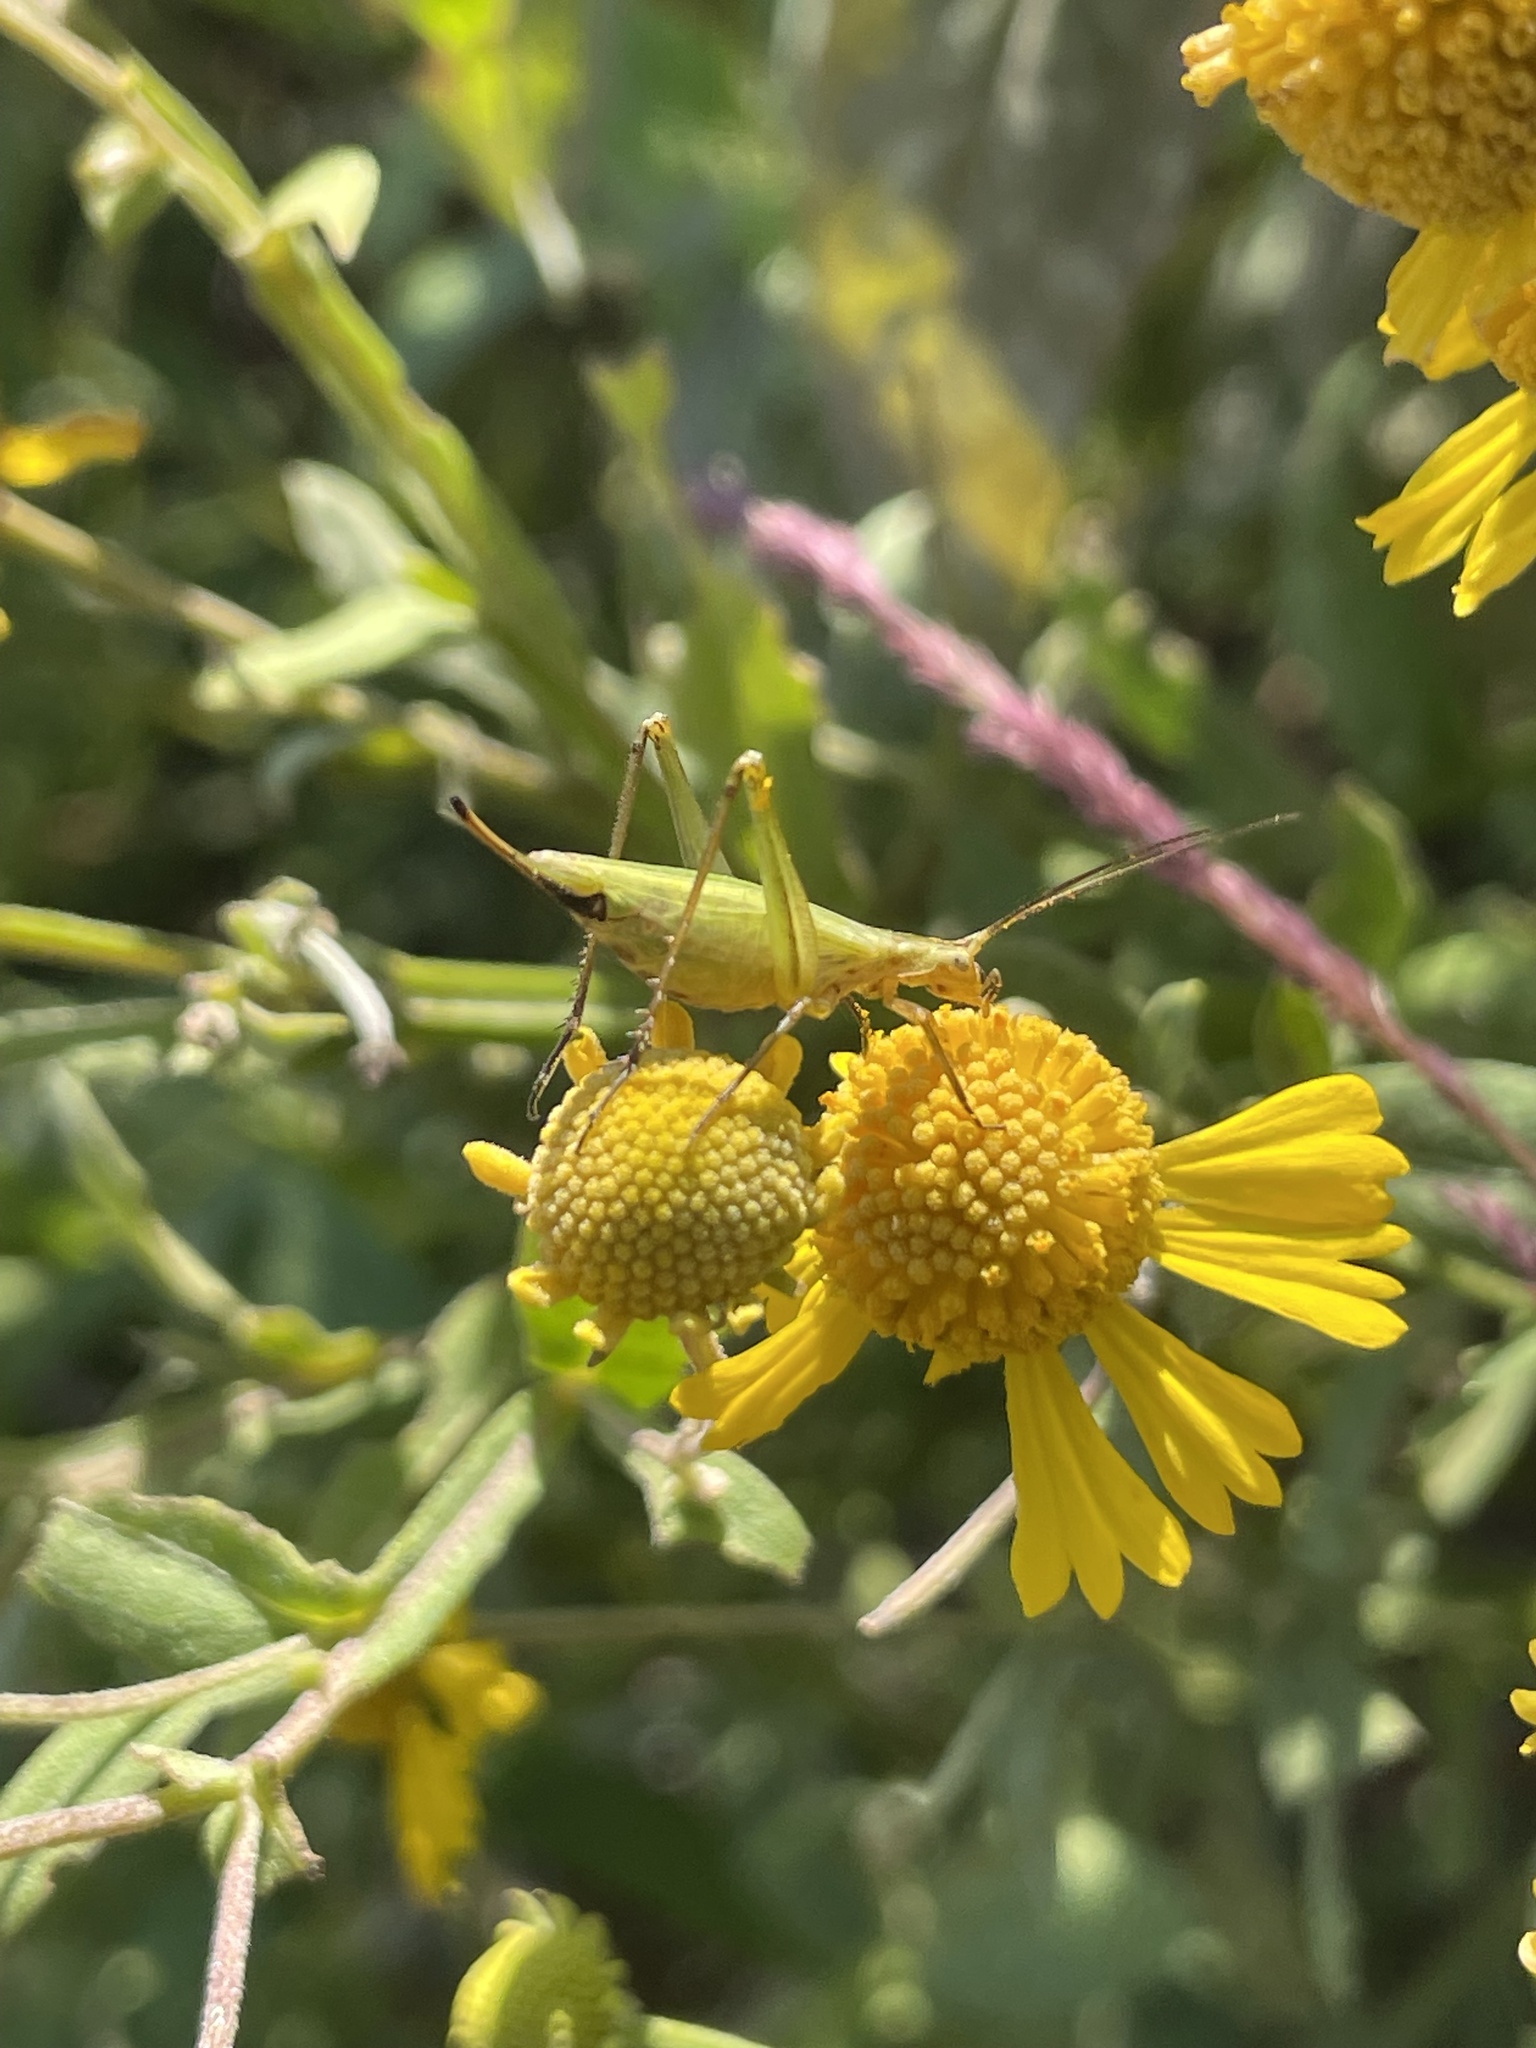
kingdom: Animalia
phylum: Arthropoda
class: Insecta
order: Orthoptera
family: Gryllidae
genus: Oecanthus
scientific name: Oecanthus forbesi
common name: Forbes’s tree cricket
